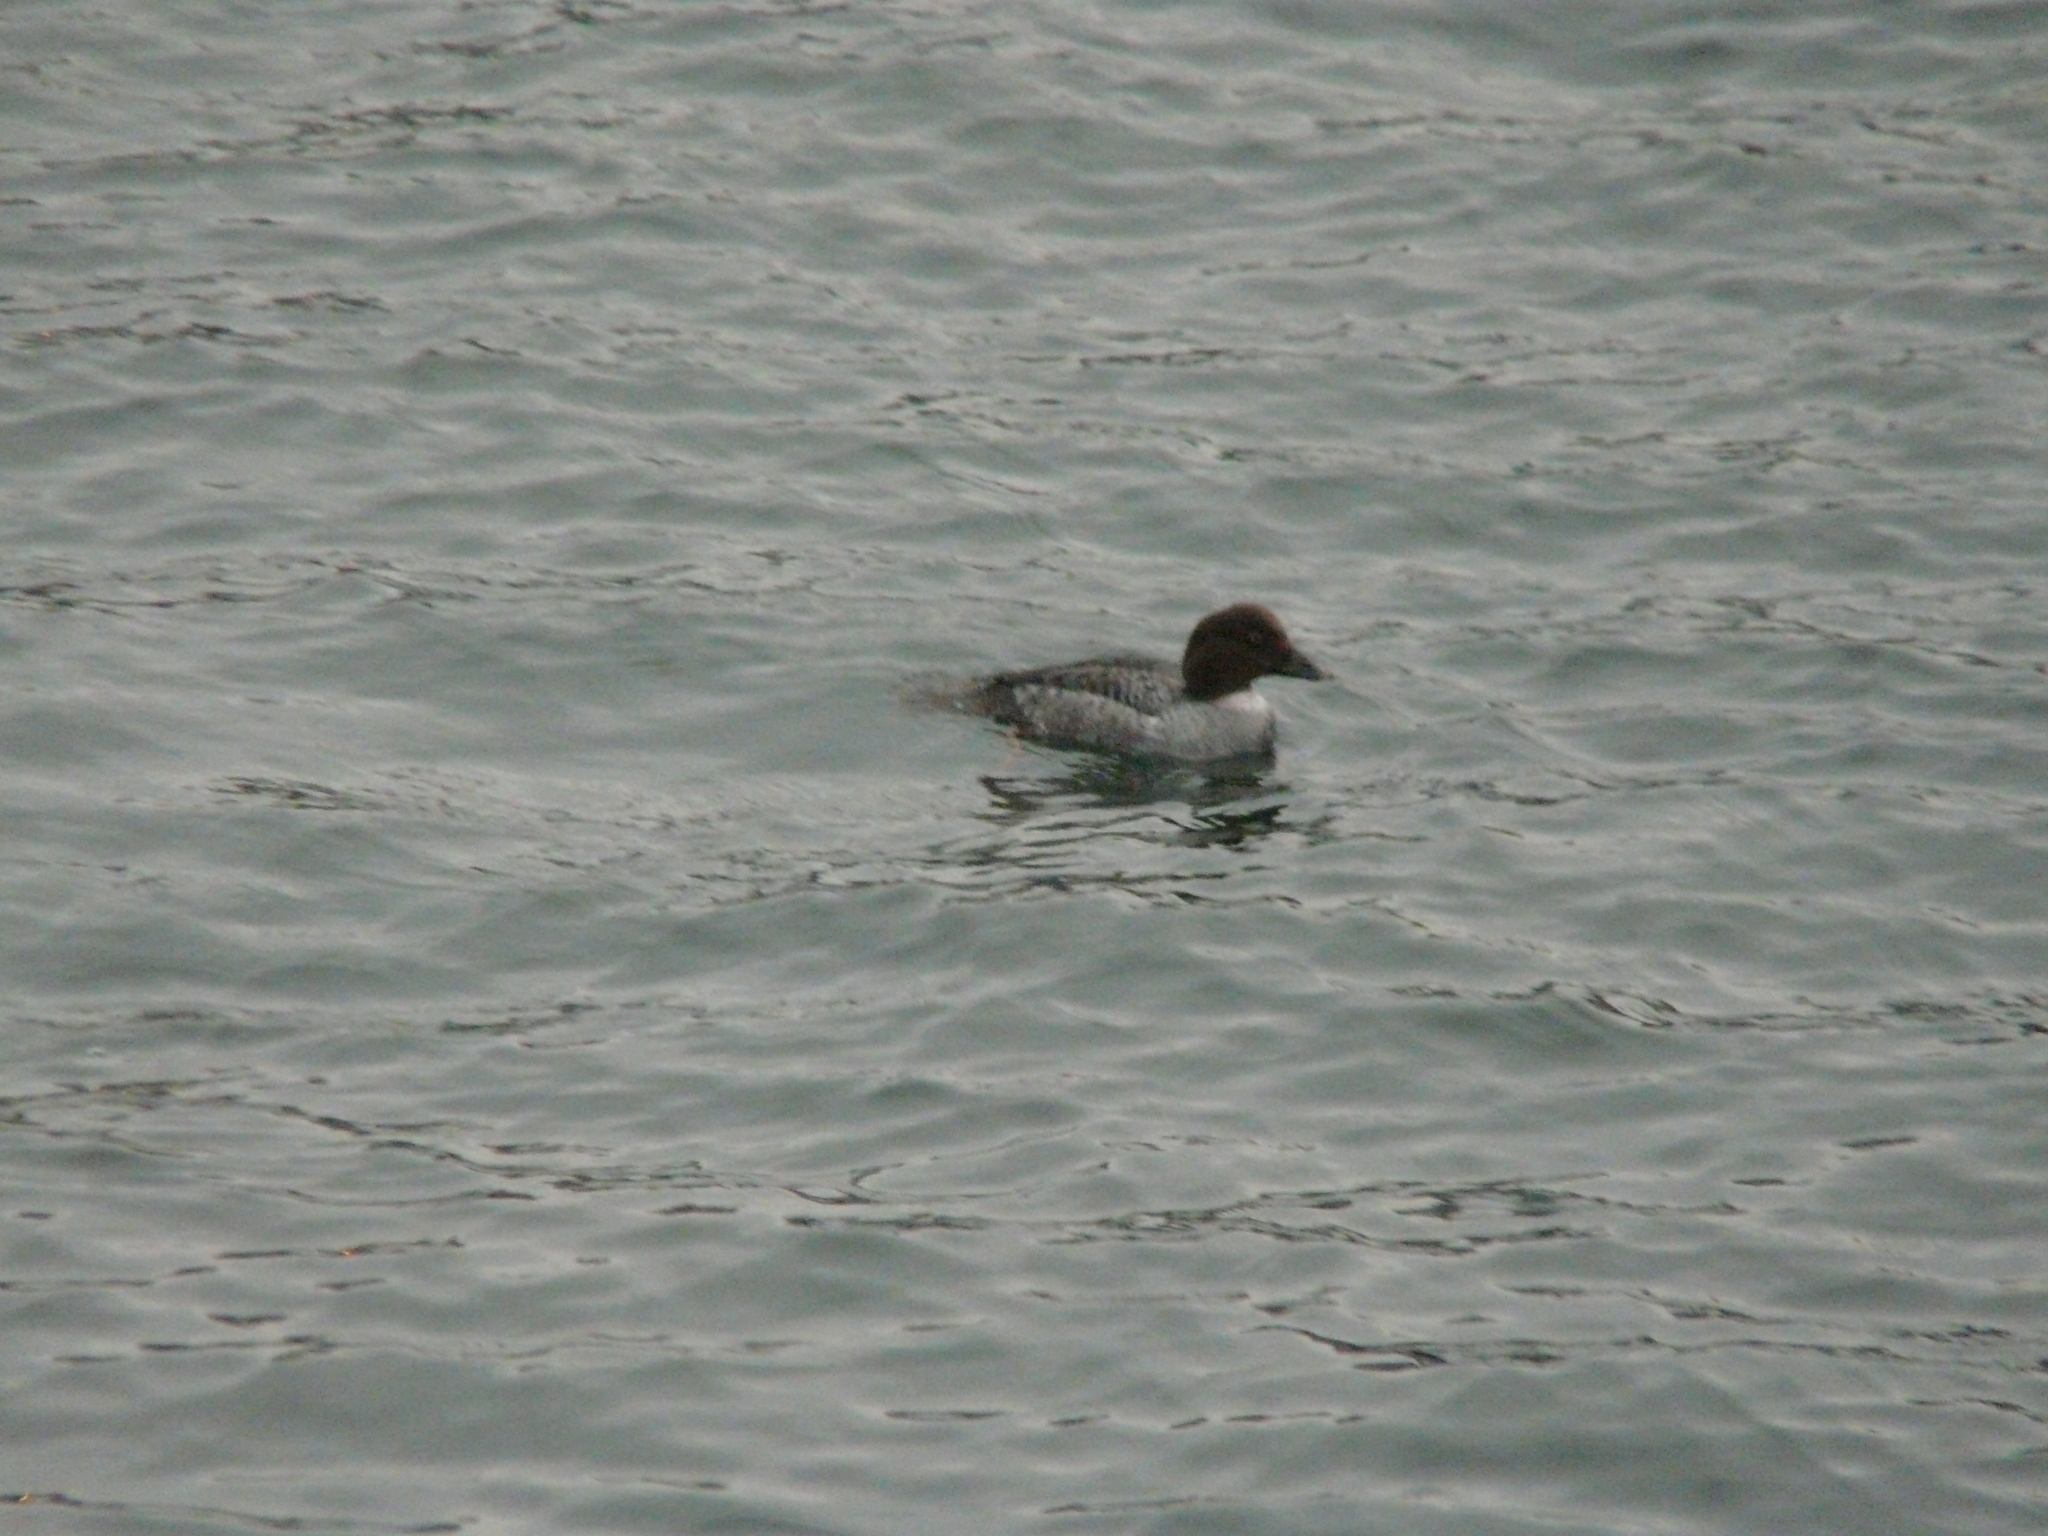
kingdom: Animalia
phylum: Chordata
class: Aves
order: Anseriformes
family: Anatidae
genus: Bucephala
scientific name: Bucephala clangula
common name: Common goldeneye
